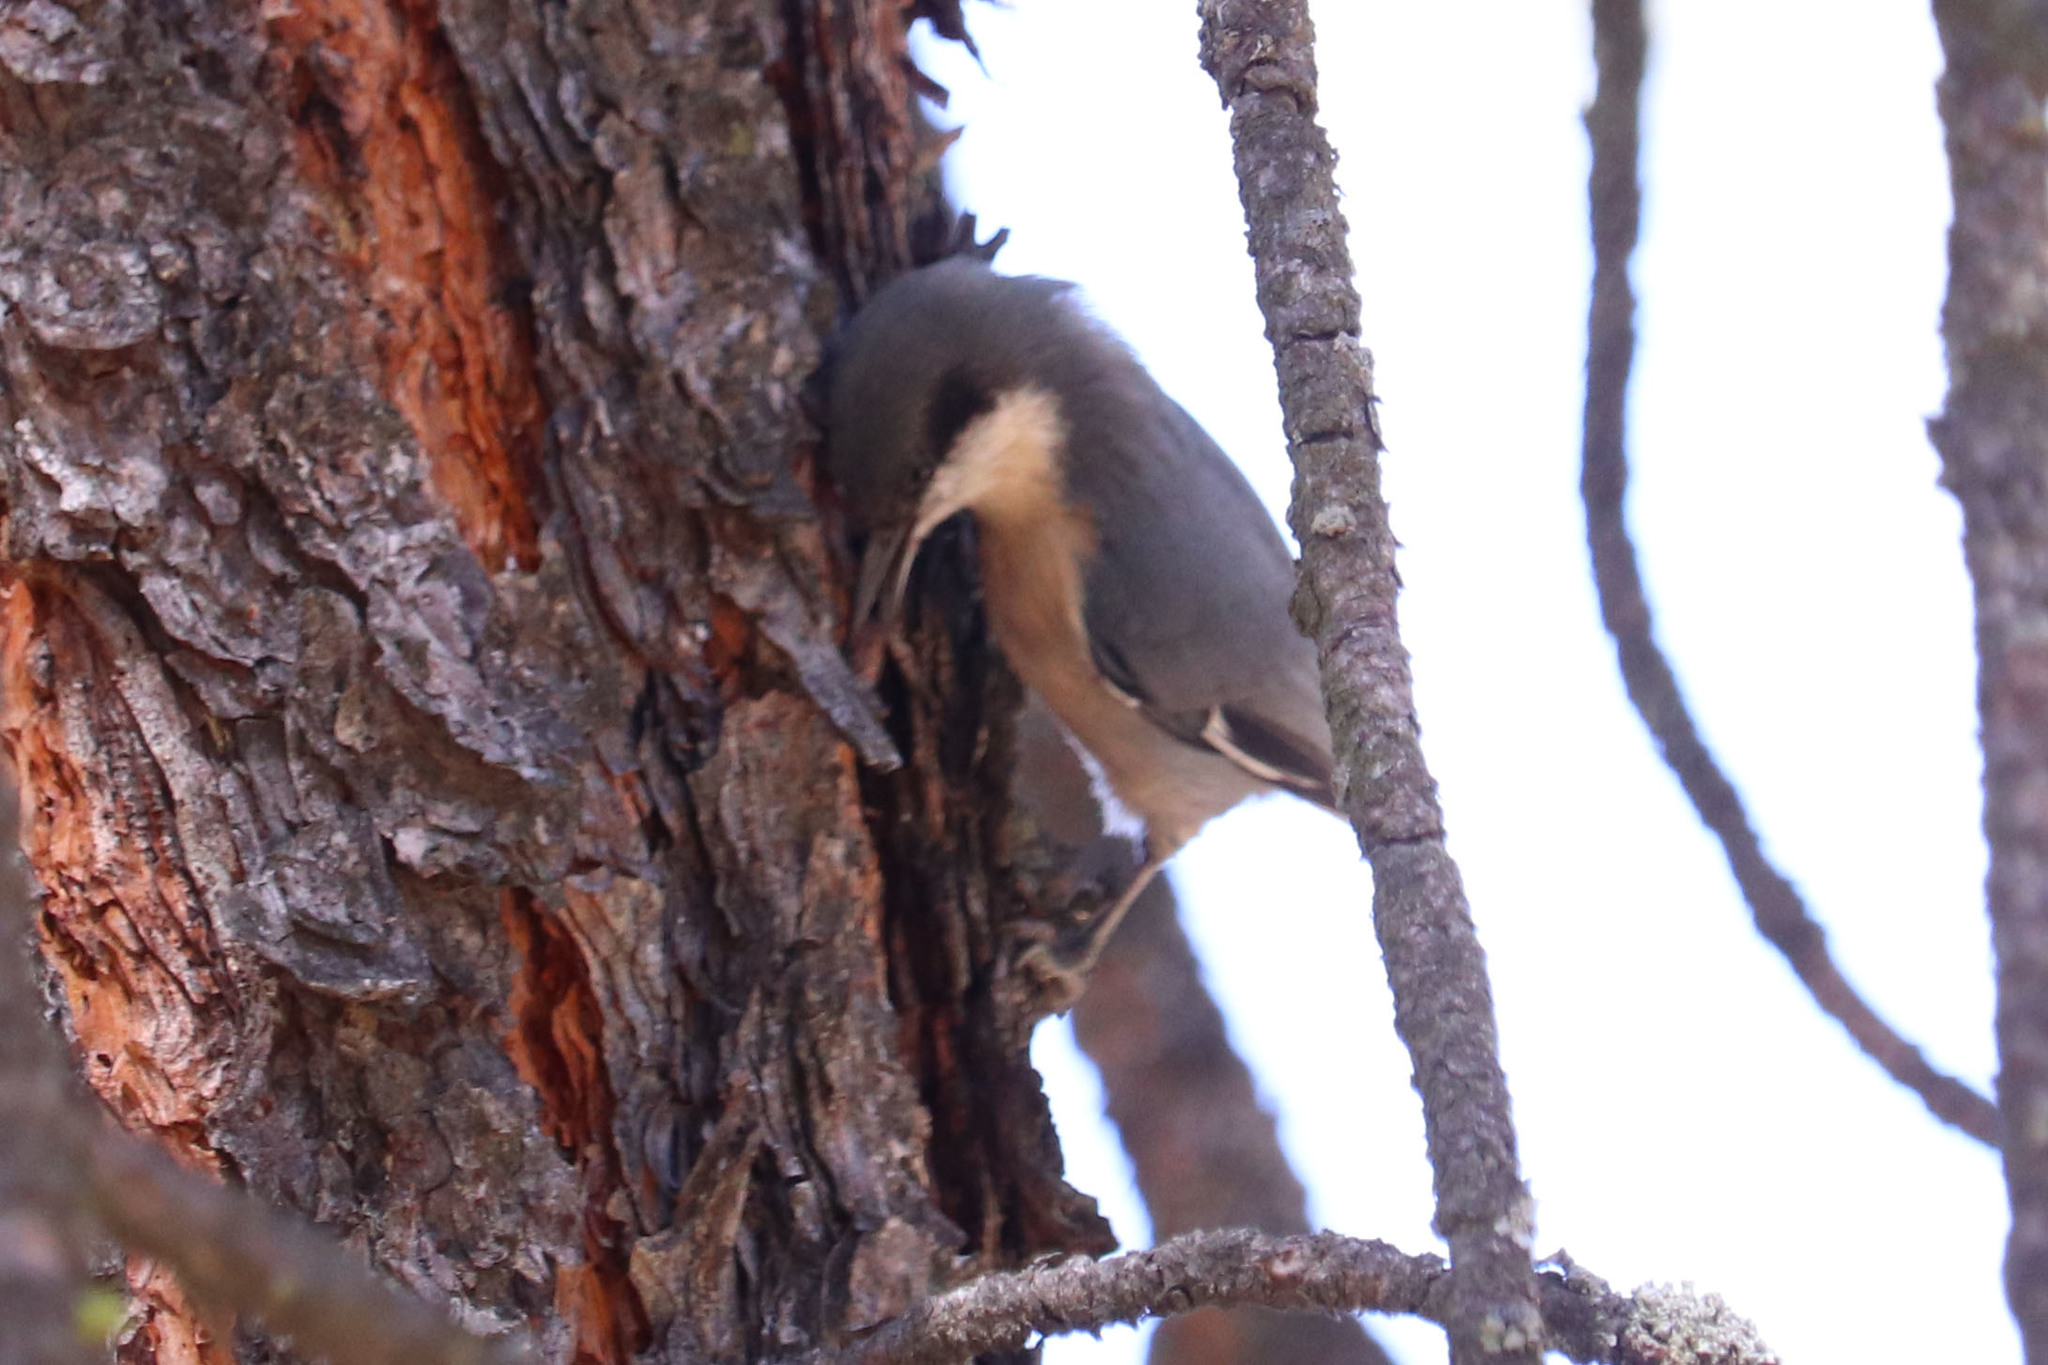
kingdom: Animalia
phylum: Chordata
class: Aves
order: Passeriformes
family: Sittidae
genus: Sitta
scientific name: Sitta pygmaea
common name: Pygmy nuthatch
